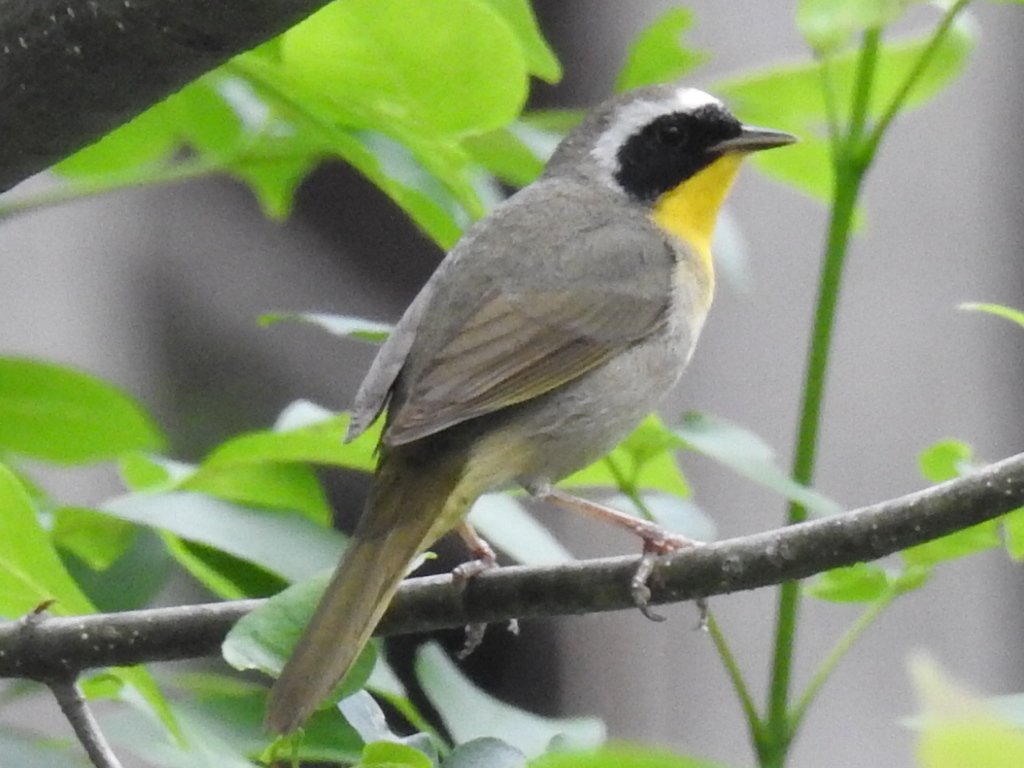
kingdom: Animalia
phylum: Chordata
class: Aves
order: Passeriformes
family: Parulidae
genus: Geothlypis
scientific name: Geothlypis trichas
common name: Common yellowthroat
